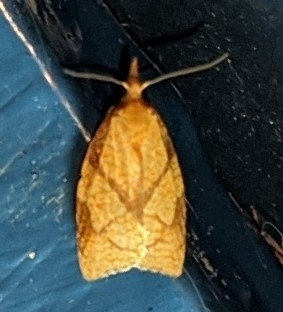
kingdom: Animalia
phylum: Arthropoda
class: Insecta
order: Lepidoptera
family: Tortricidae
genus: Cenopis
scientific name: Cenopis reticulatana
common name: Reticulated fruitworm moth
